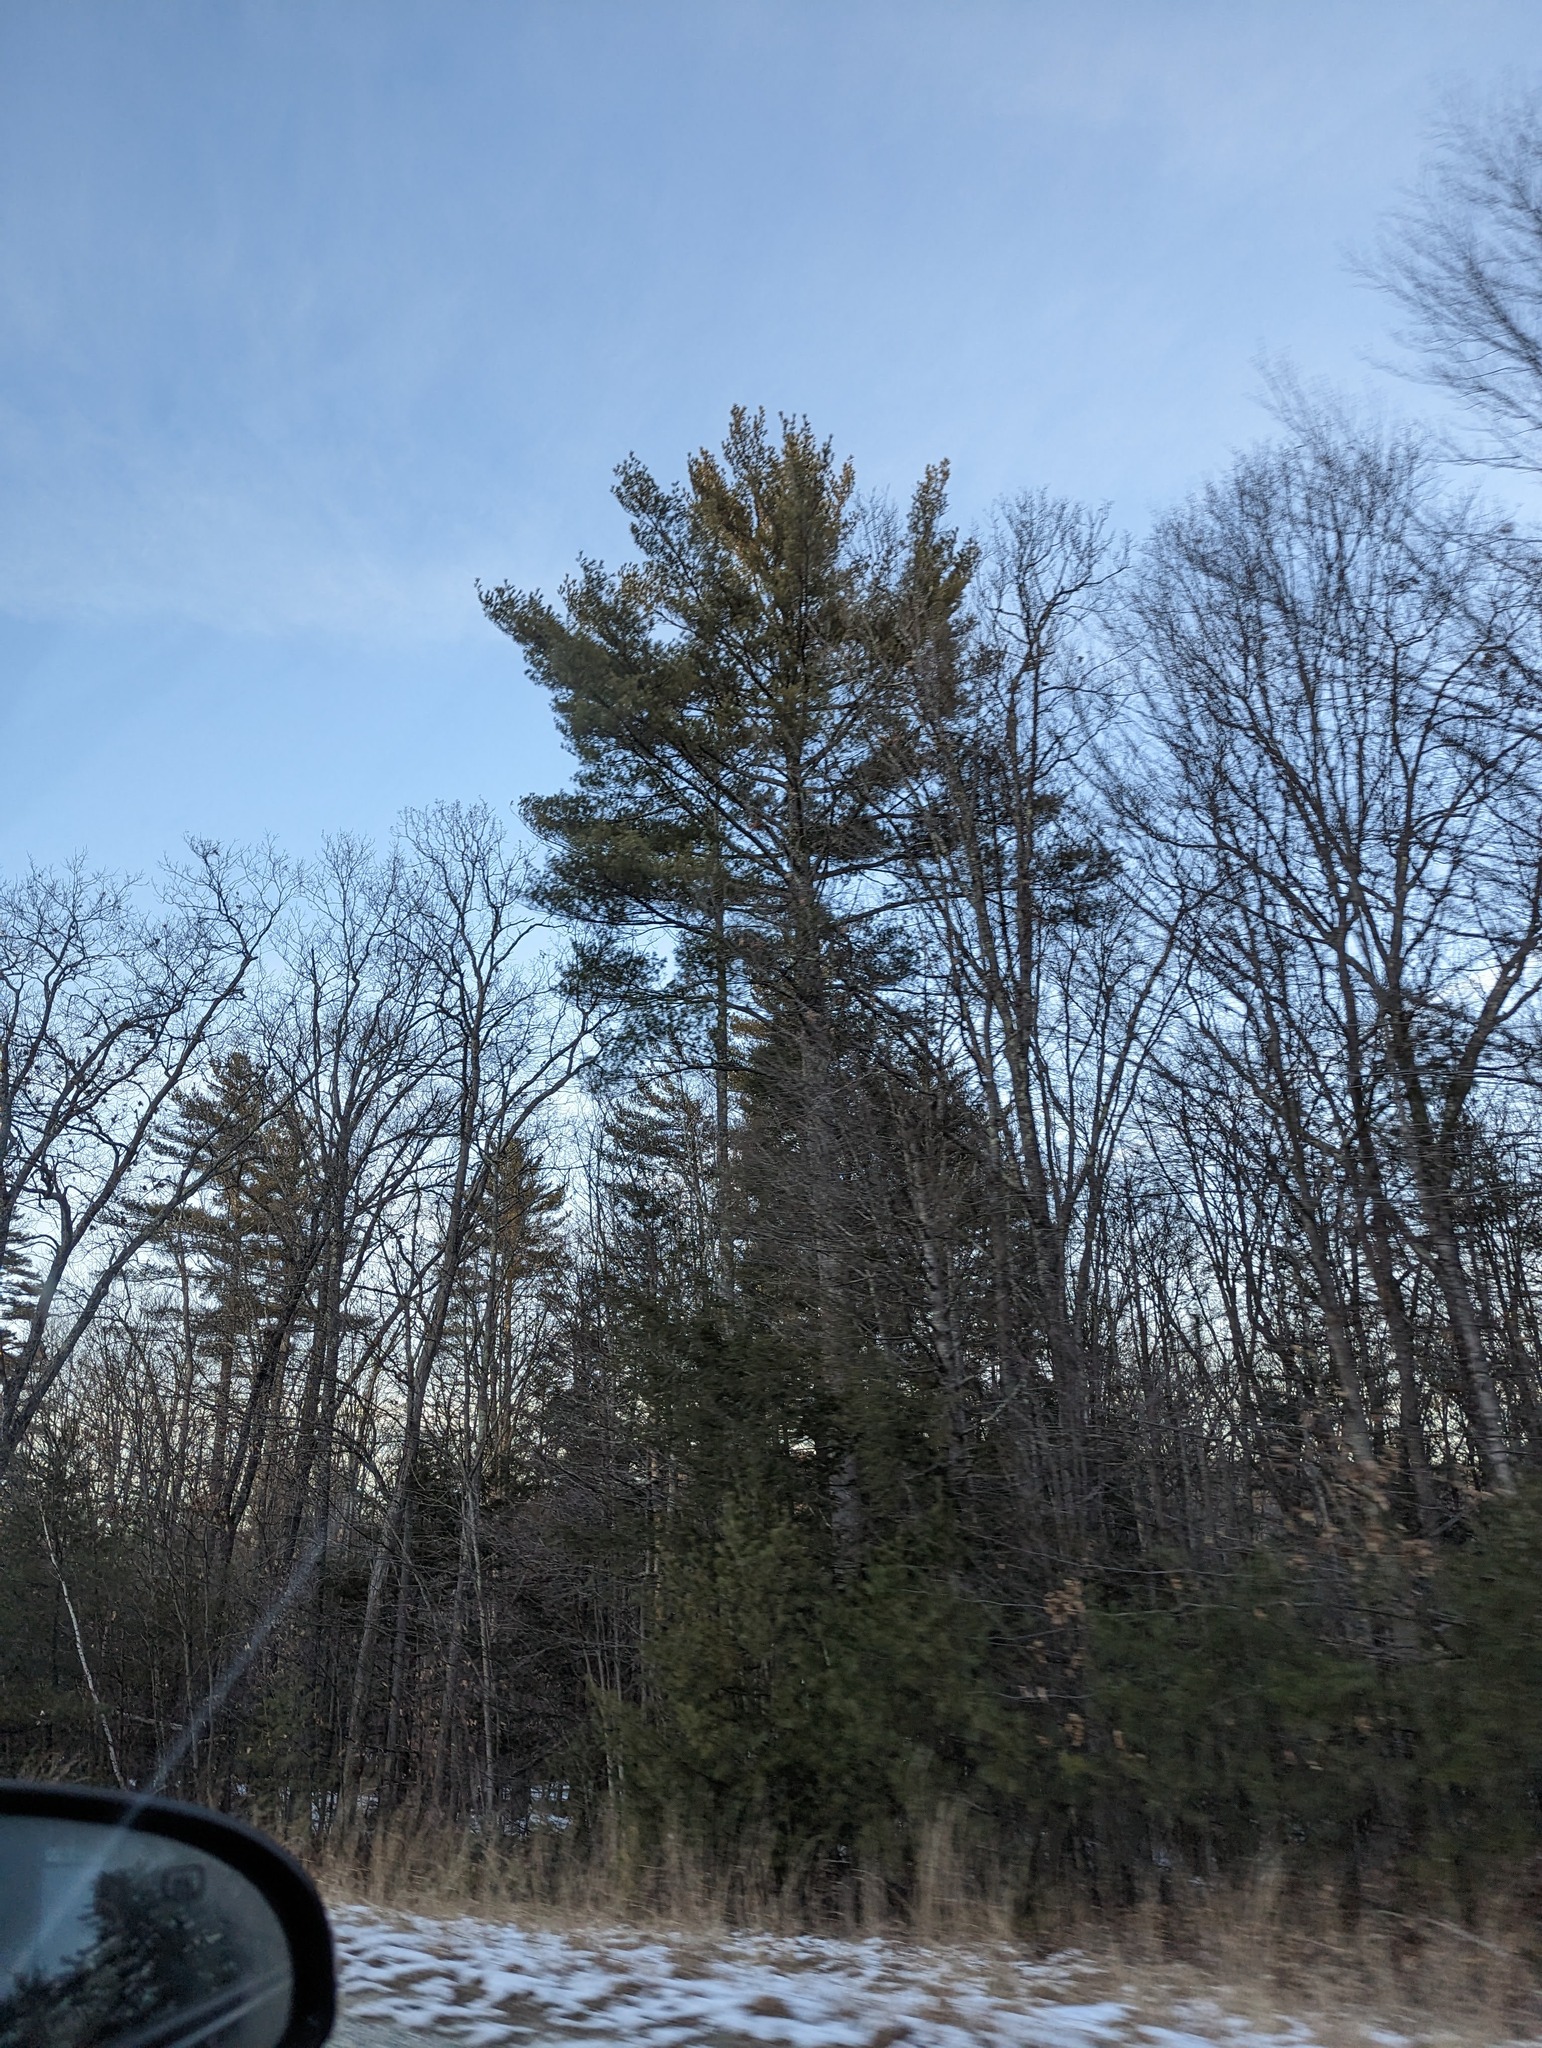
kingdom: Plantae
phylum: Tracheophyta
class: Pinopsida
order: Pinales
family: Pinaceae
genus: Pinus
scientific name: Pinus strobus
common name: Weymouth pine
